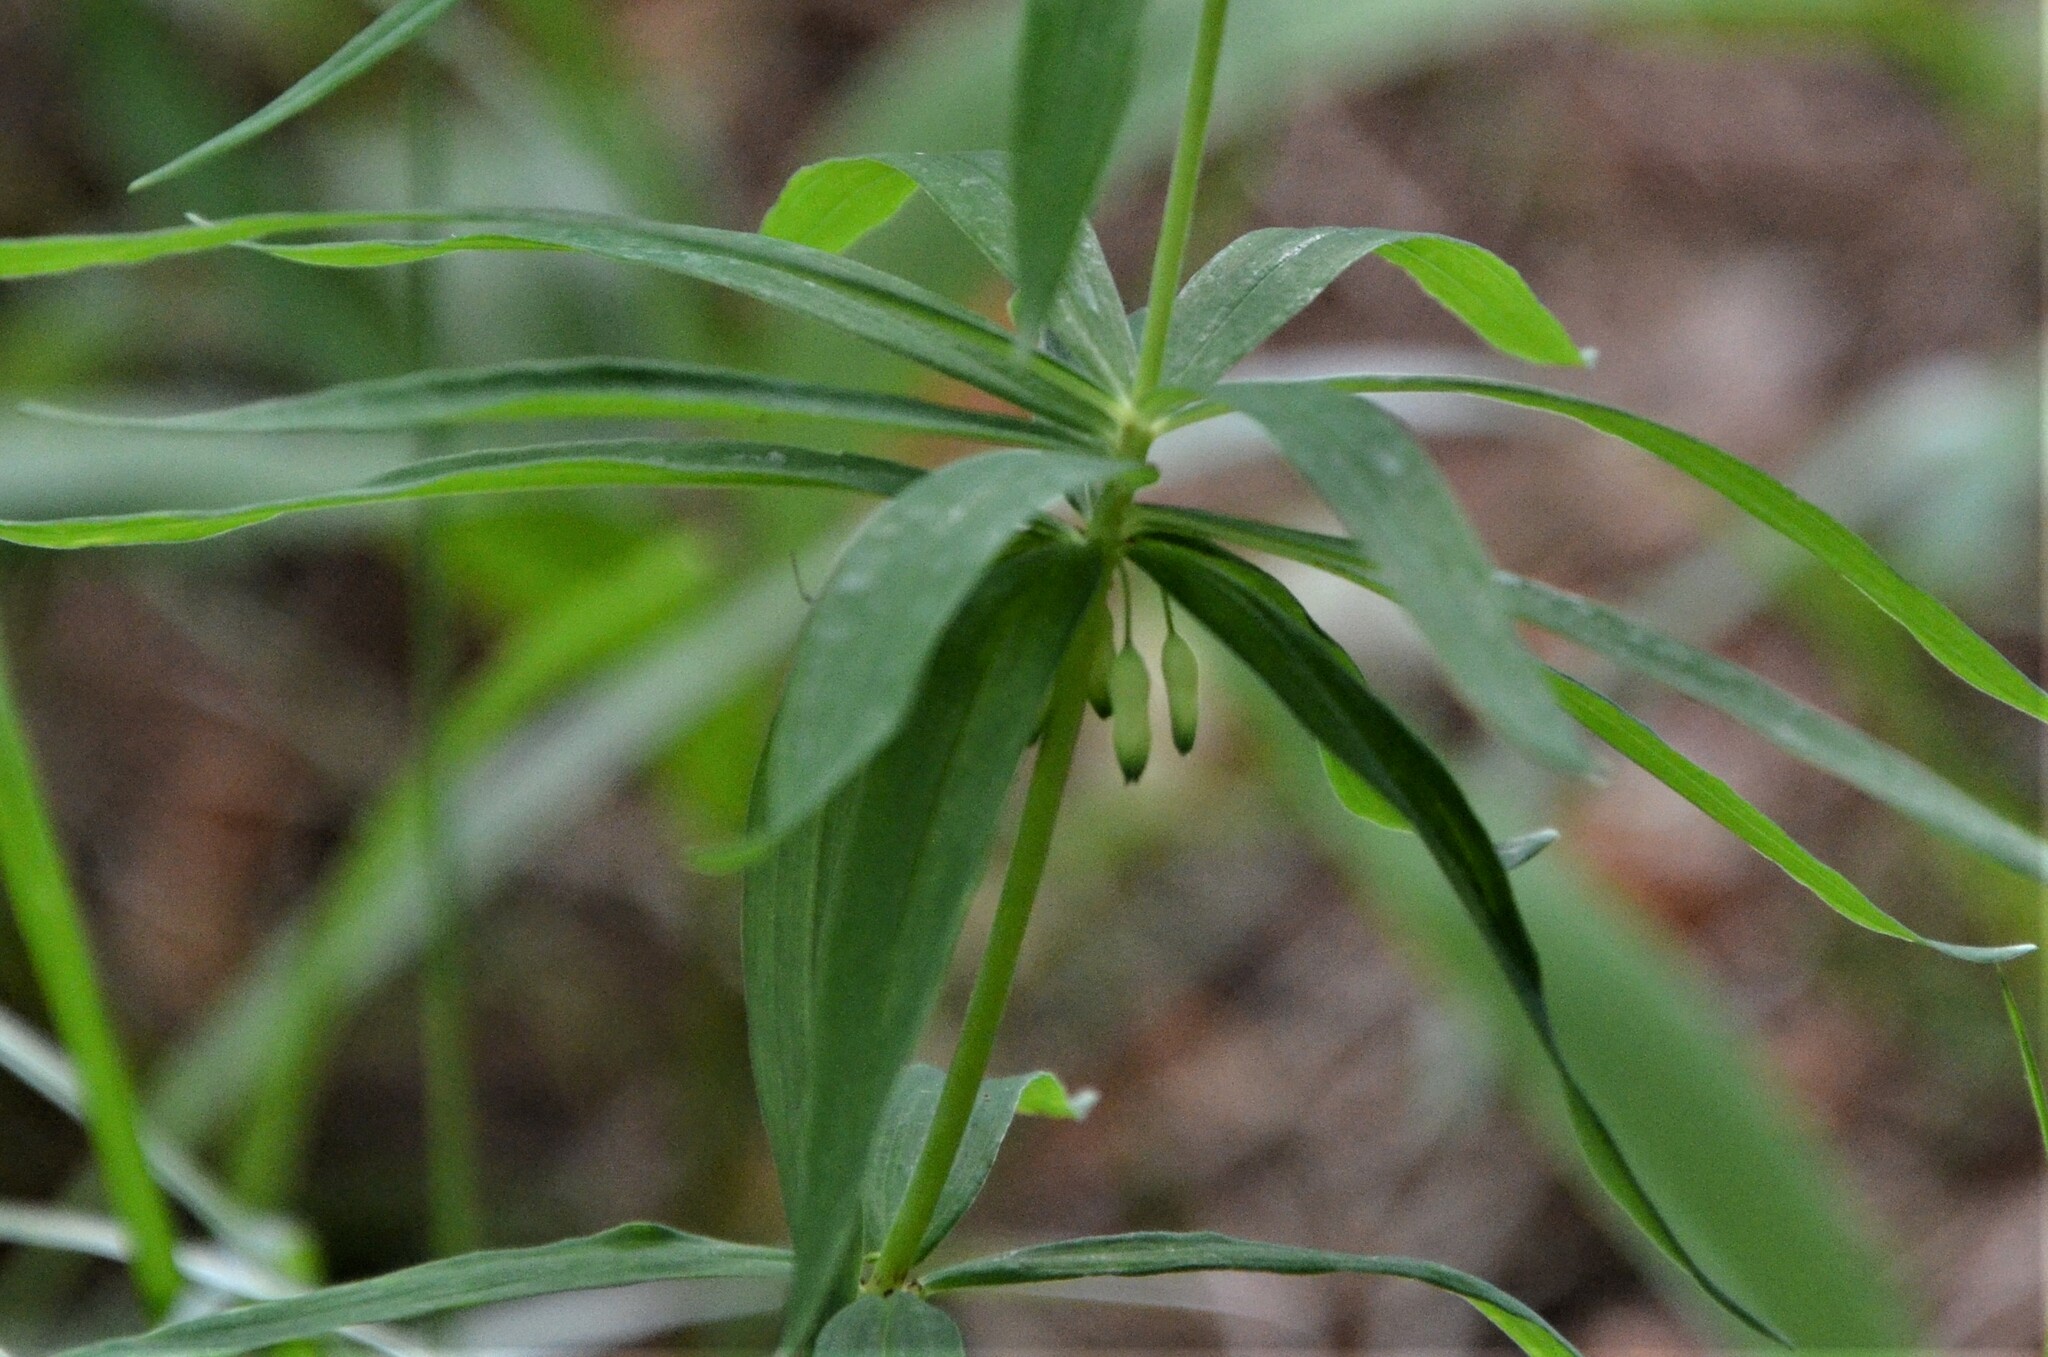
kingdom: Plantae
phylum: Tracheophyta
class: Liliopsida
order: Asparagales
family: Asparagaceae
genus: Polygonatum
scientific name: Polygonatum verticillatum
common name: Whorled solomon's-seal
